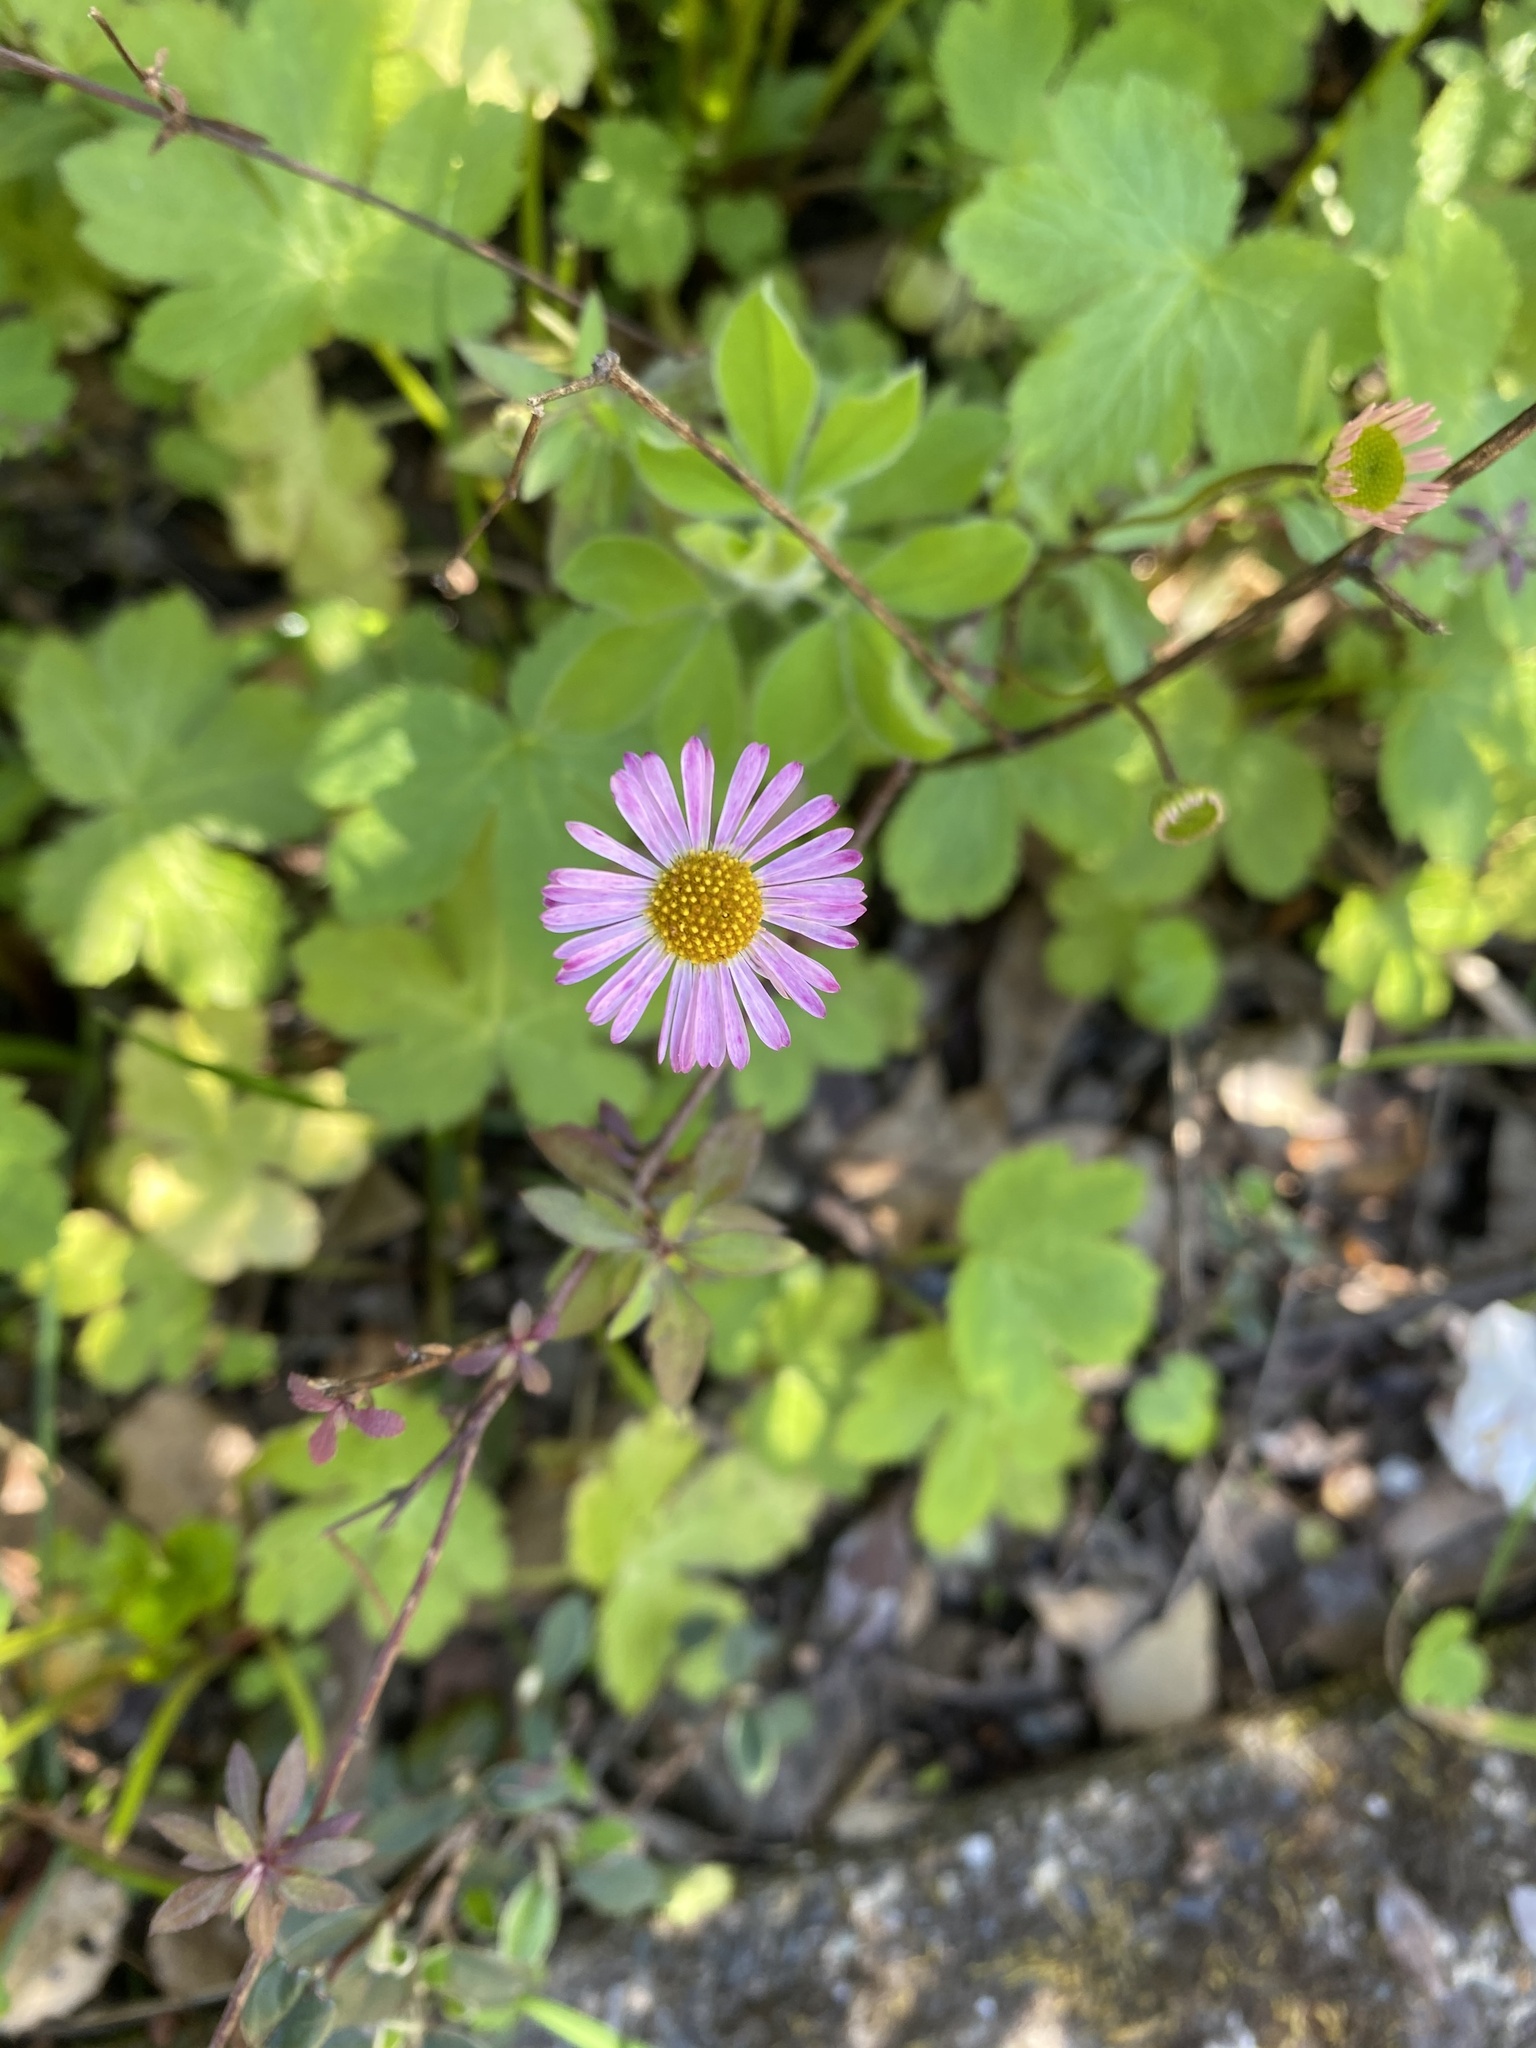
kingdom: Plantae
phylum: Tracheophyta
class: Magnoliopsida
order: Asterales
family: Asteraceae
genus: Erigeron
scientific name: Erigeron karvinskianus
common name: Mexican fleabane
